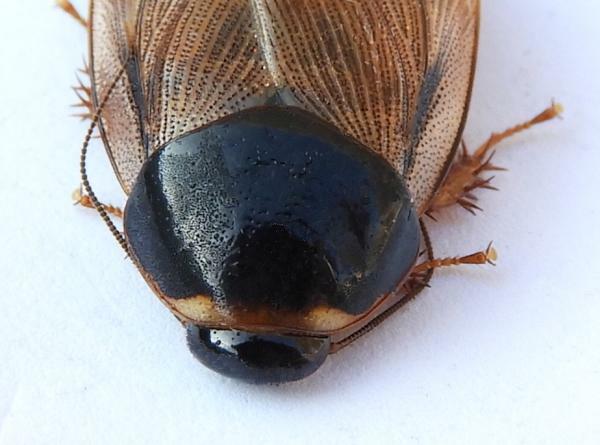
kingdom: Animalia
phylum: Arthropoda
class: Insecta
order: Blattodea
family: Blaberidae
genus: Pycnoscelus
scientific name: Pycnoscelus surinamensis
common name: Surinam cockroach
